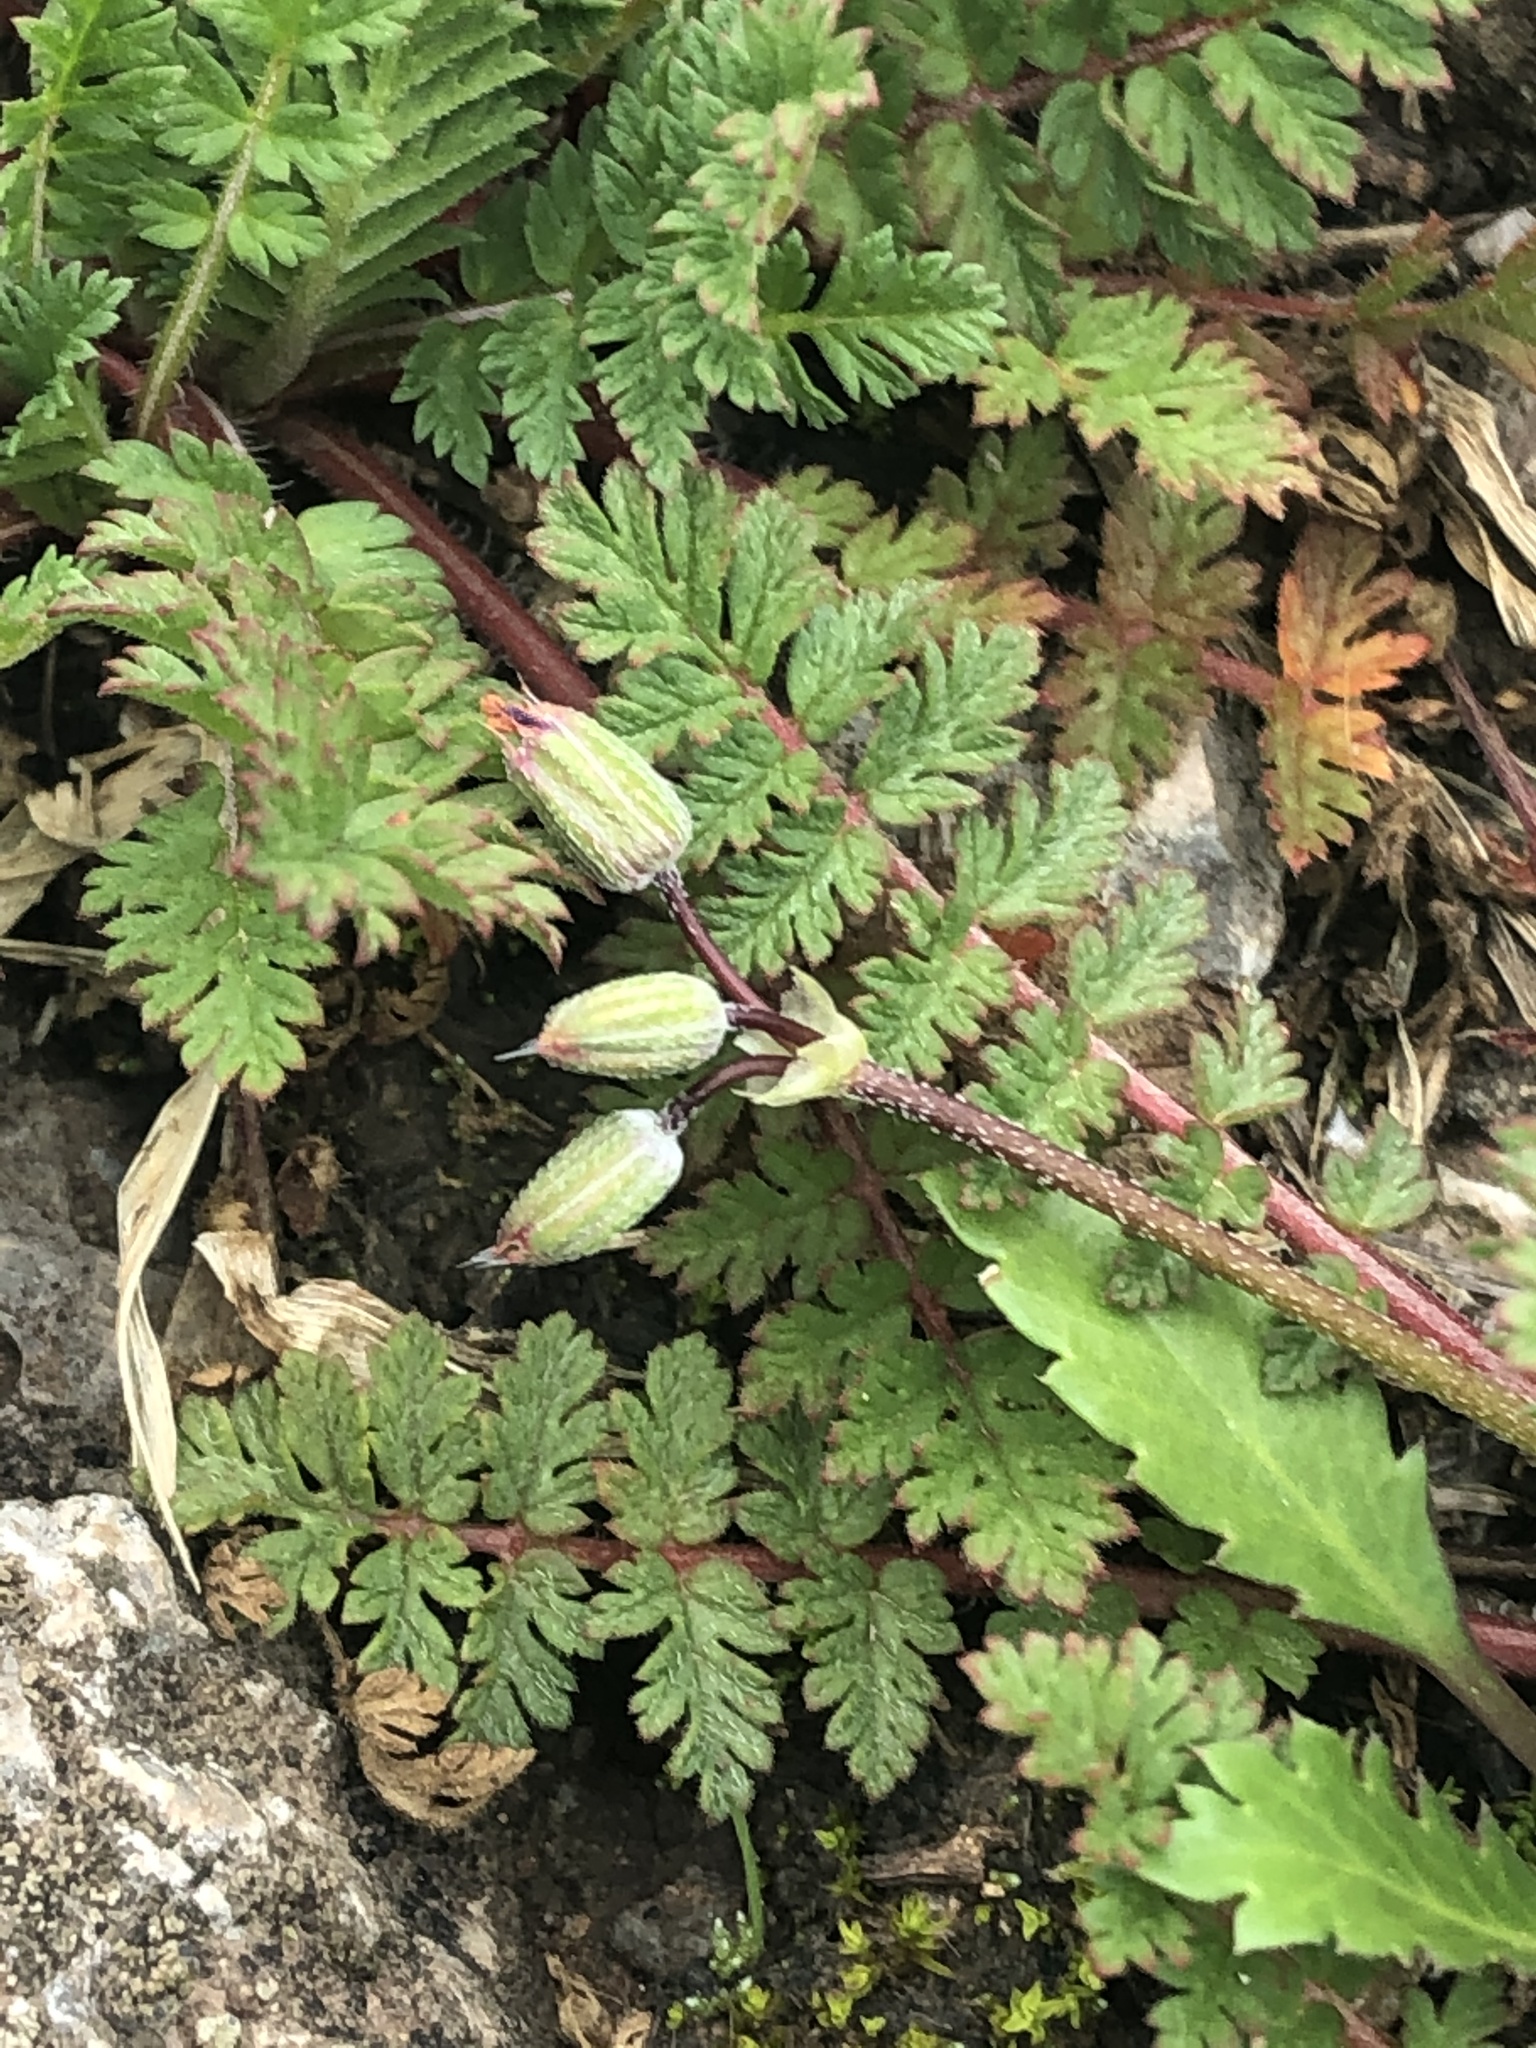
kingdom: Plantae
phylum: Tracheophyta
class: Magnoliopsida
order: Geraniales
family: Geraniaceae
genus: Erodium
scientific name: Erodium cicutarium
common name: Common stork's-bill
